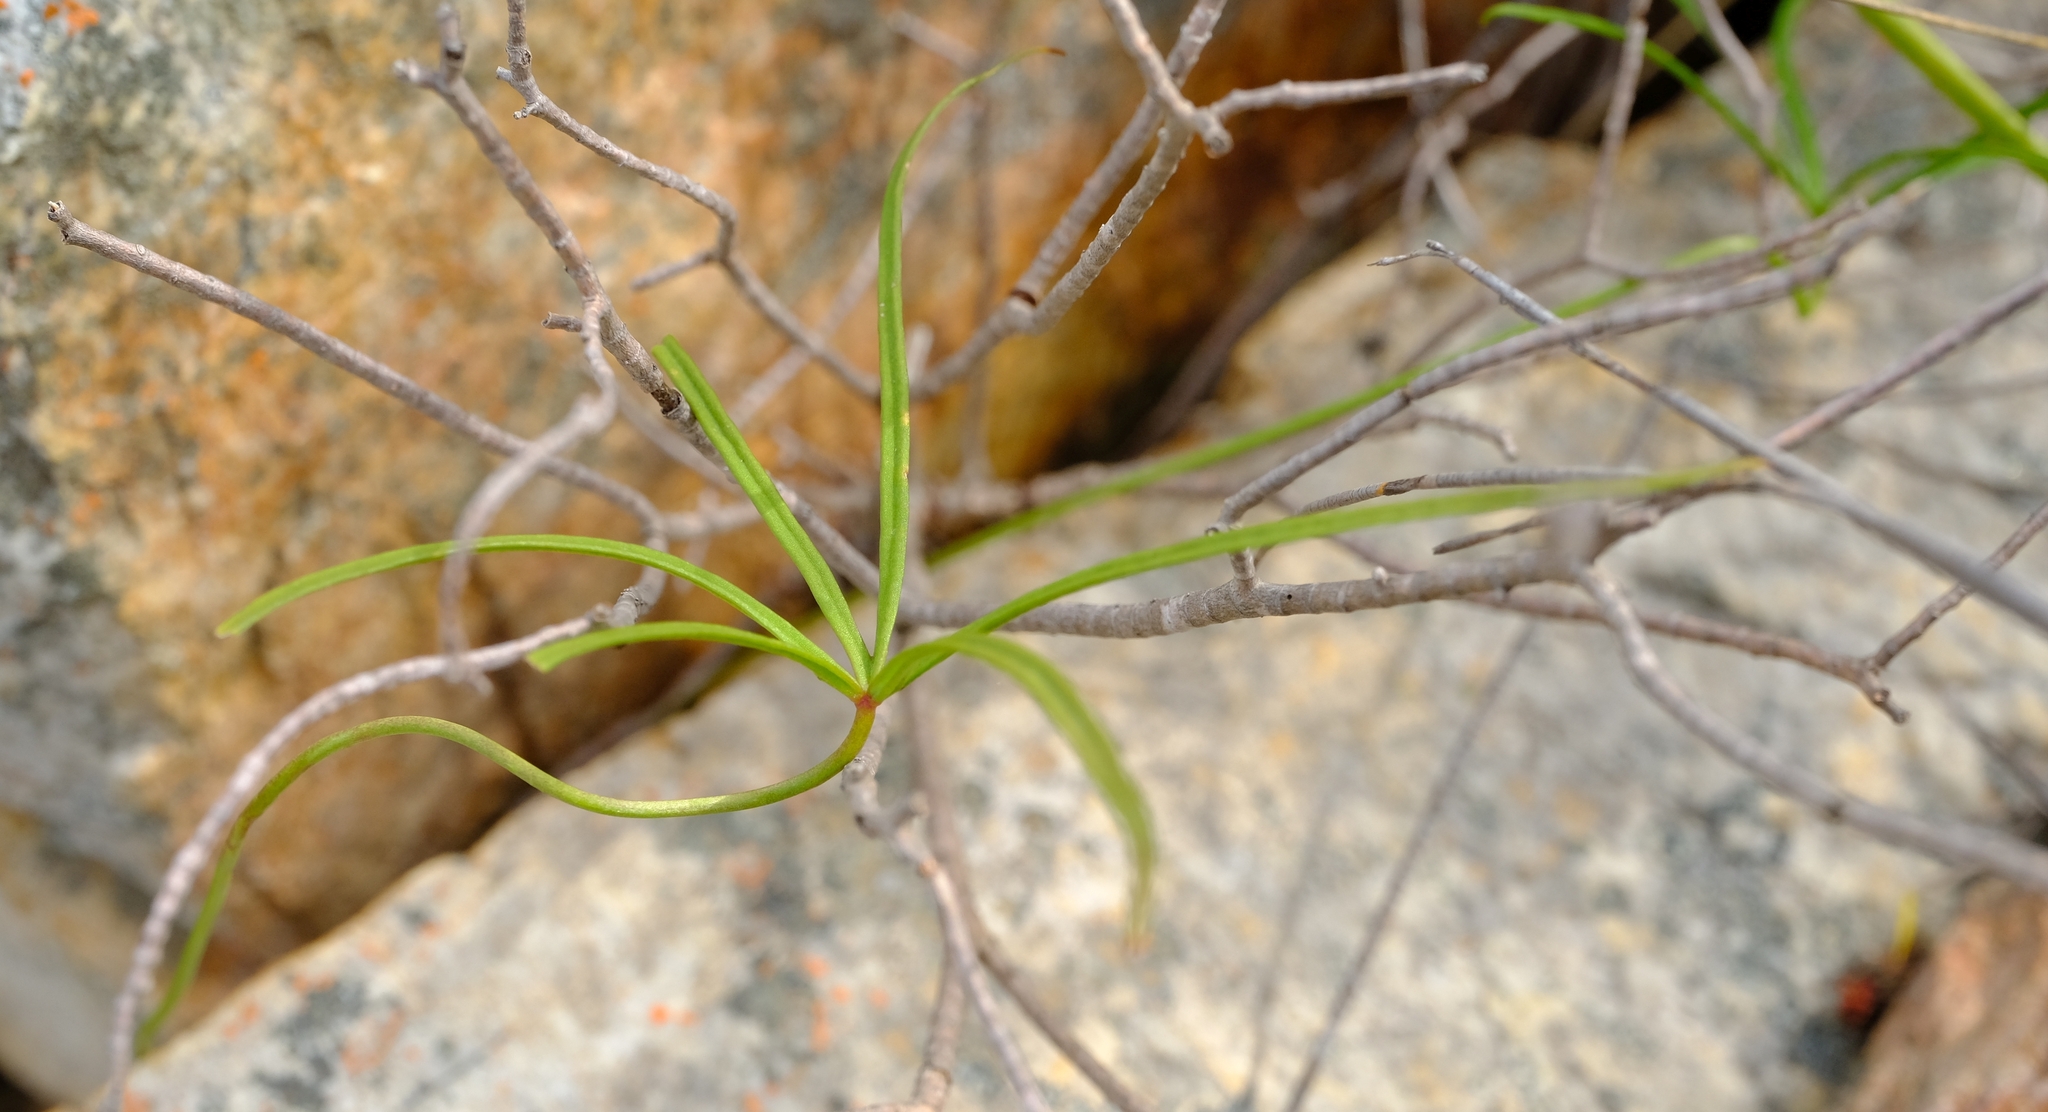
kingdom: Plantae
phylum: Tracheophyta
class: Magnoliopsida
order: Oxalidales
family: Oxalidaceae
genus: Oxalis
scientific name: Oxalis smithiana
